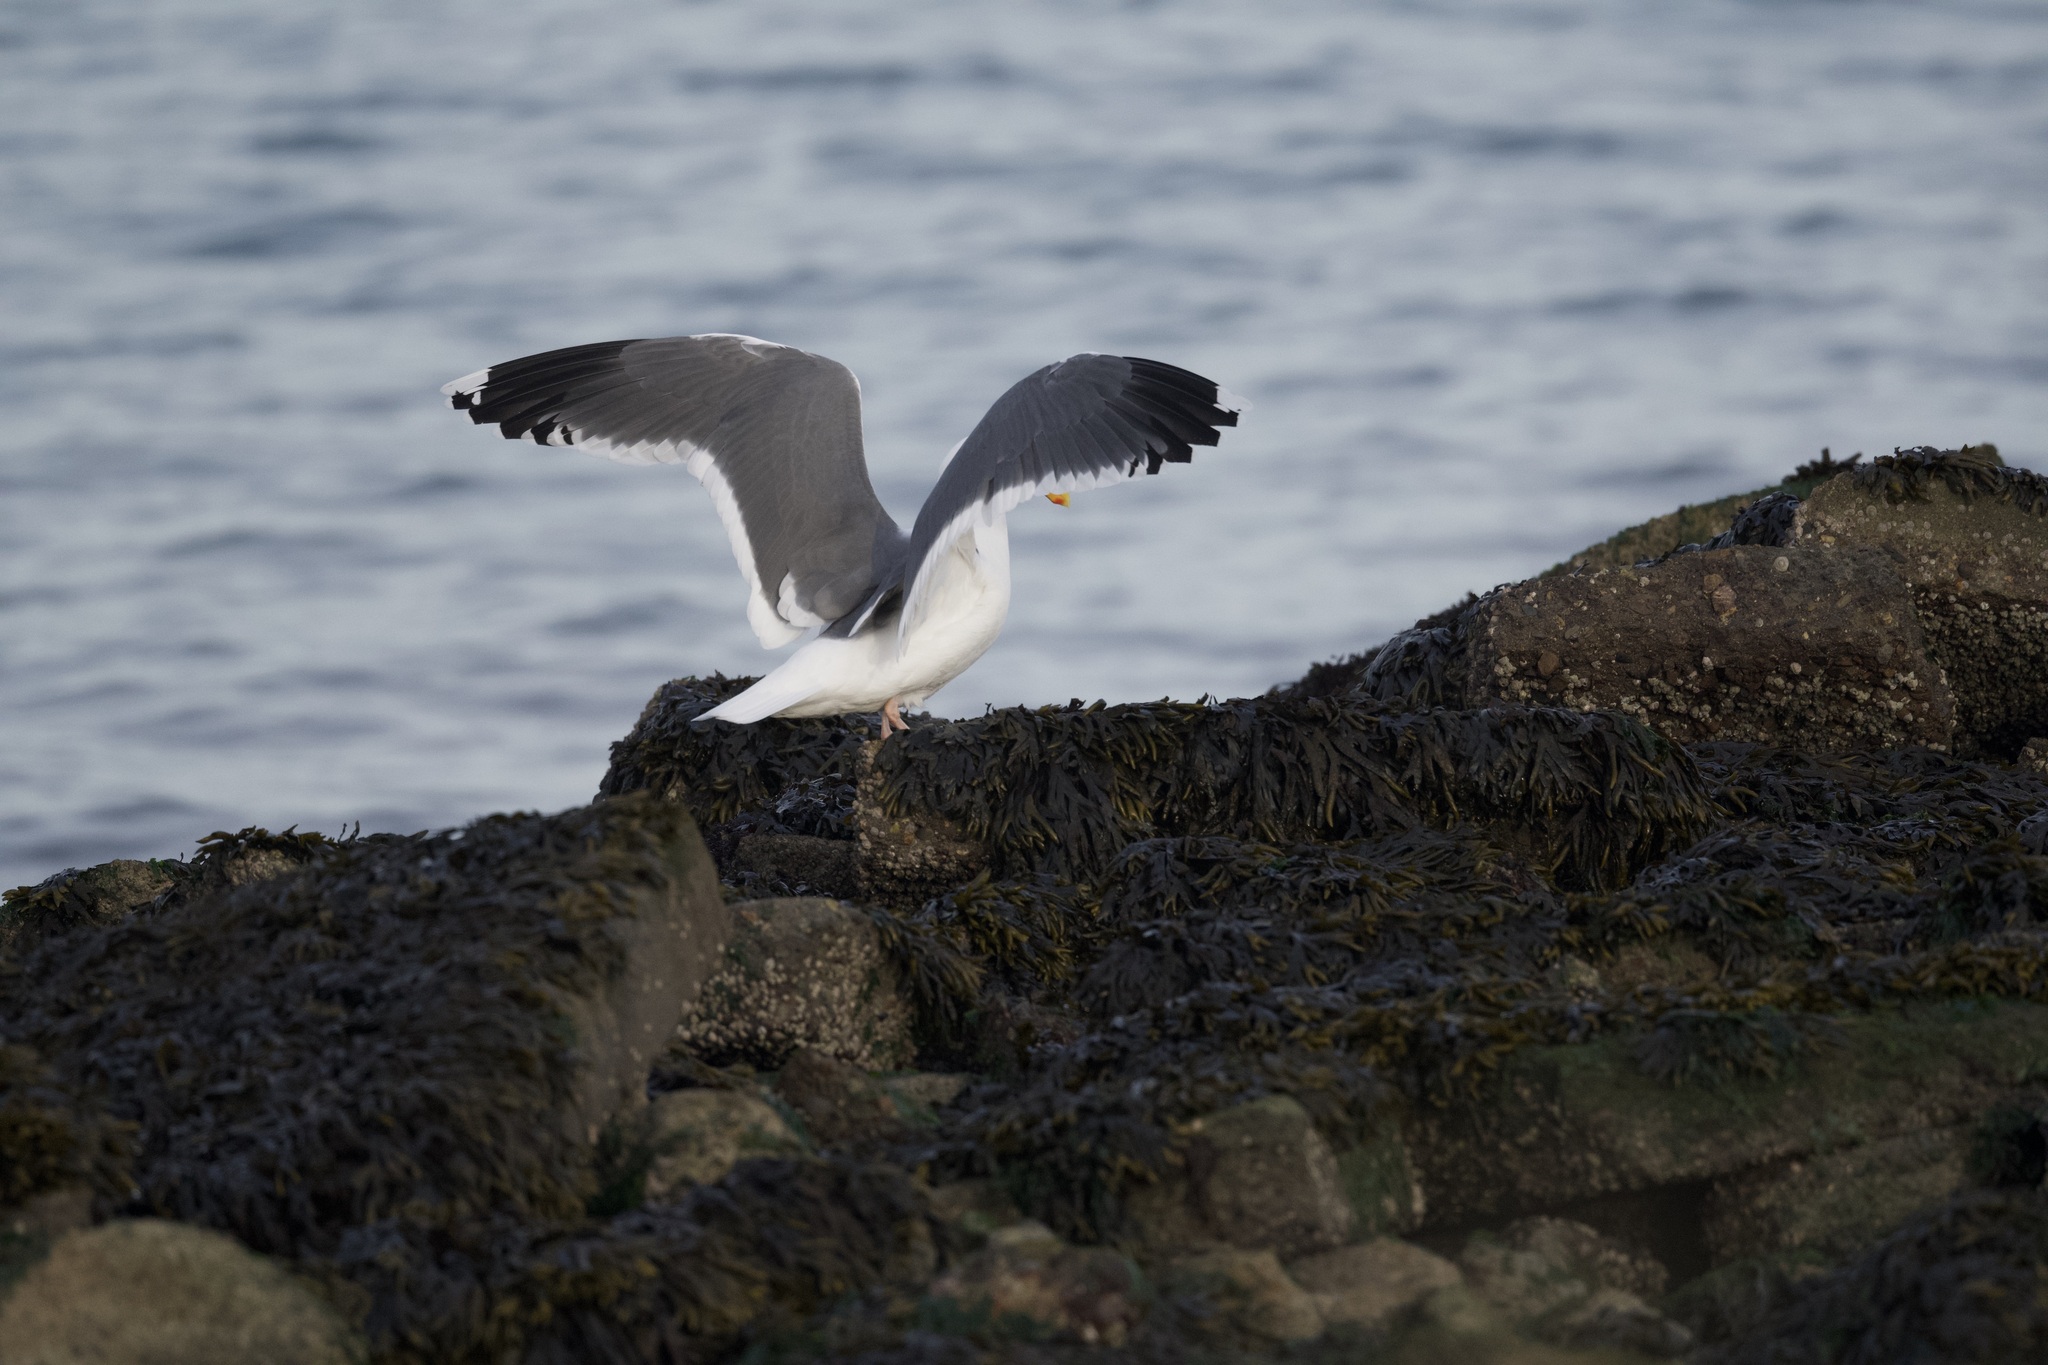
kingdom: Animalia
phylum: Chordata
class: Aves
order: Charadriiformes
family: Laridae
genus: Larus
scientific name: Larus occidentalis
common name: Western gull
